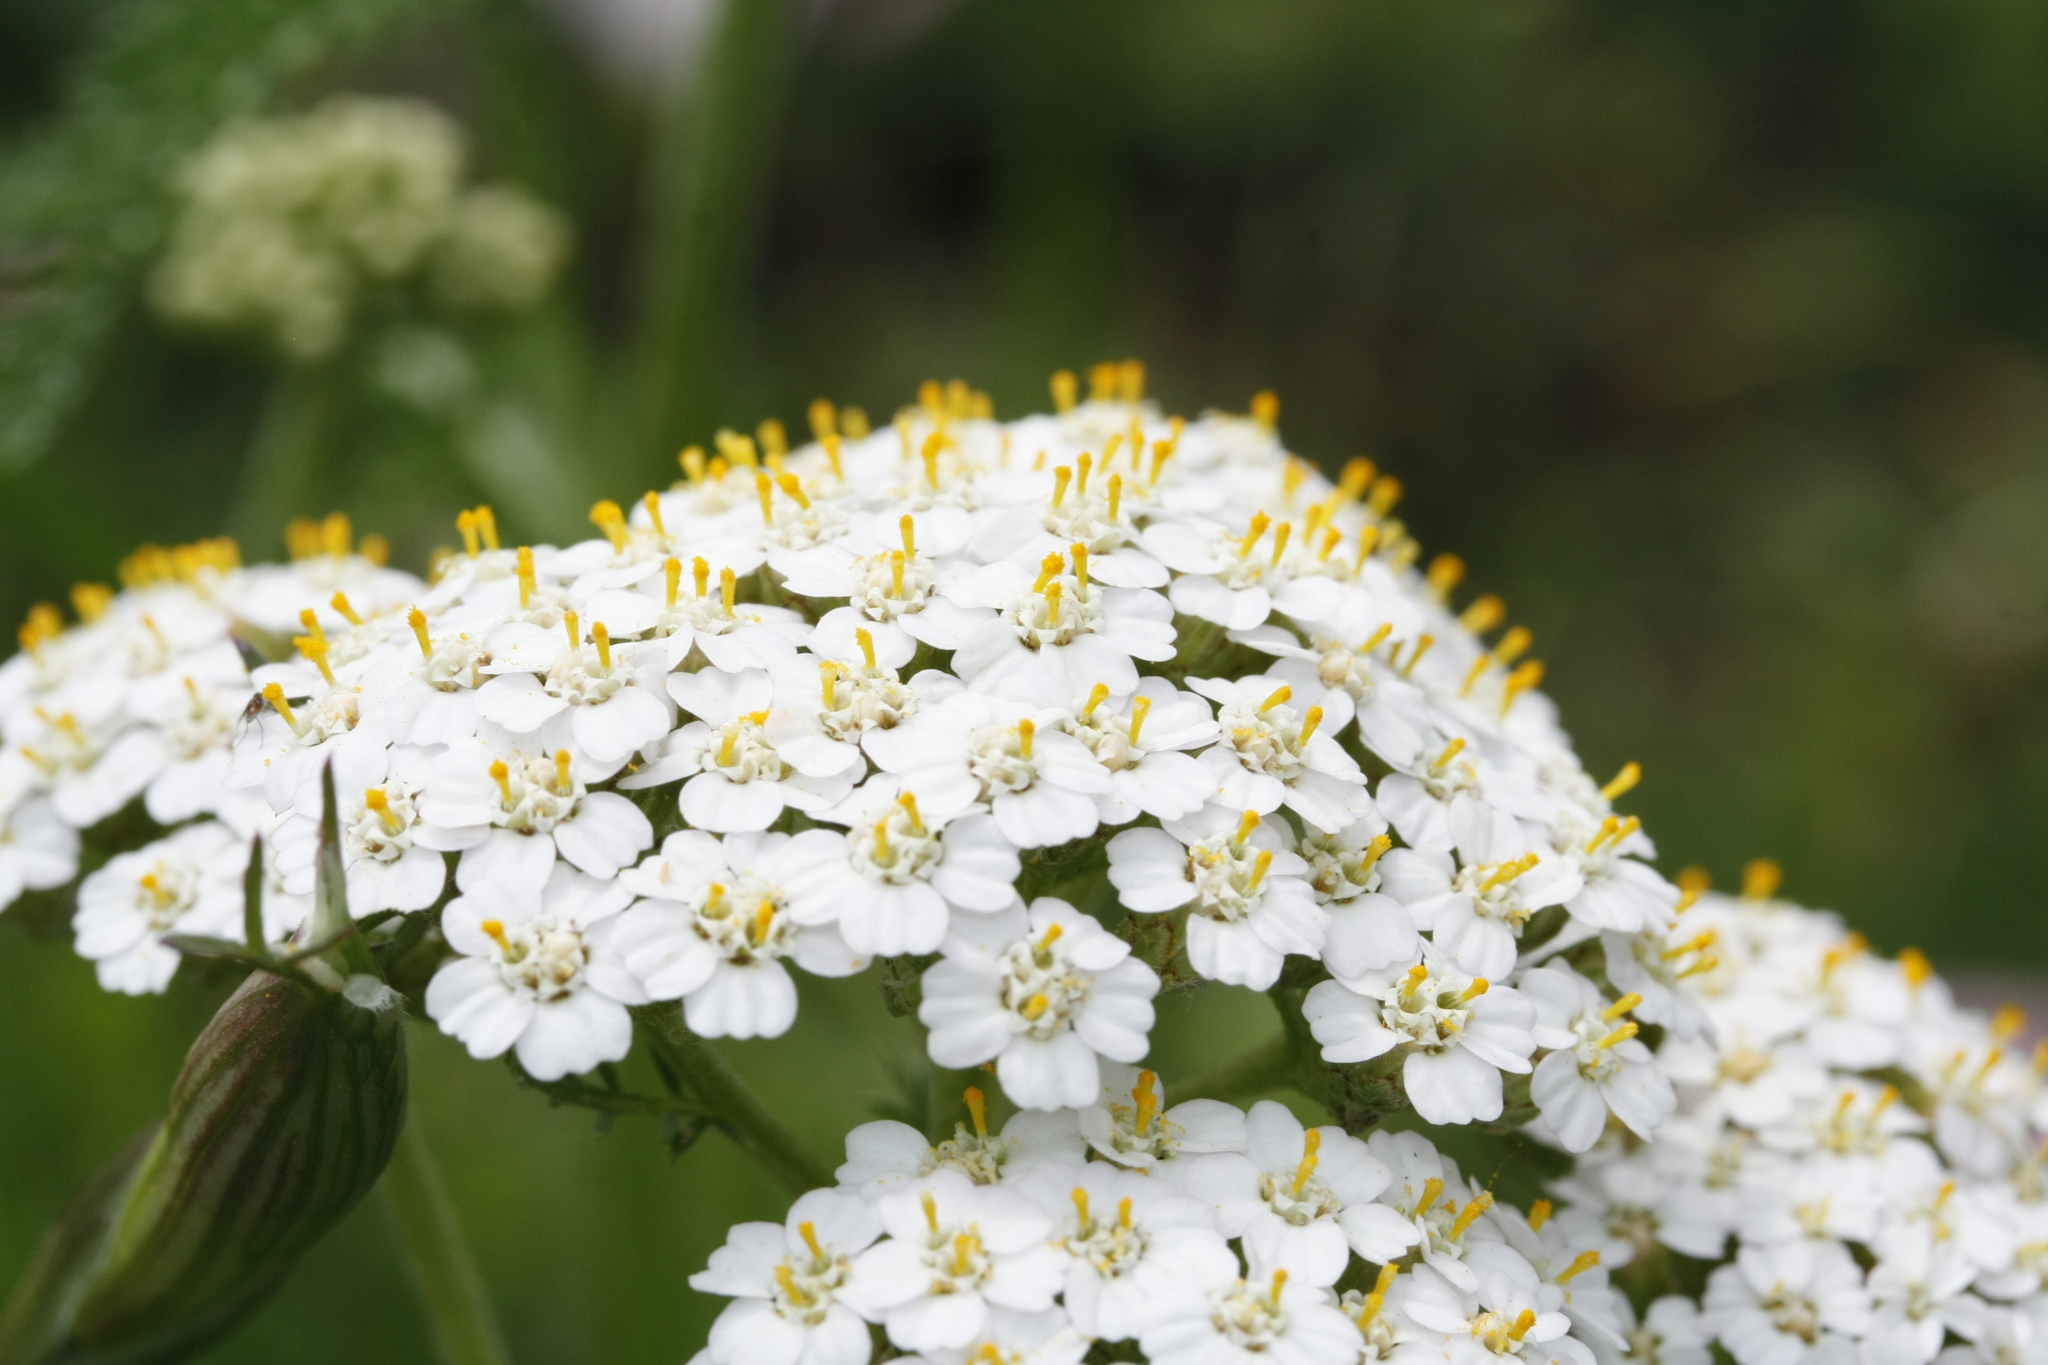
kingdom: Plantae
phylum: Tracheophyta
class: Magnoliopsida
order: Asterales
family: Asteraceae
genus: Achillea
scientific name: Achillea millefolium
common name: Yarrow
